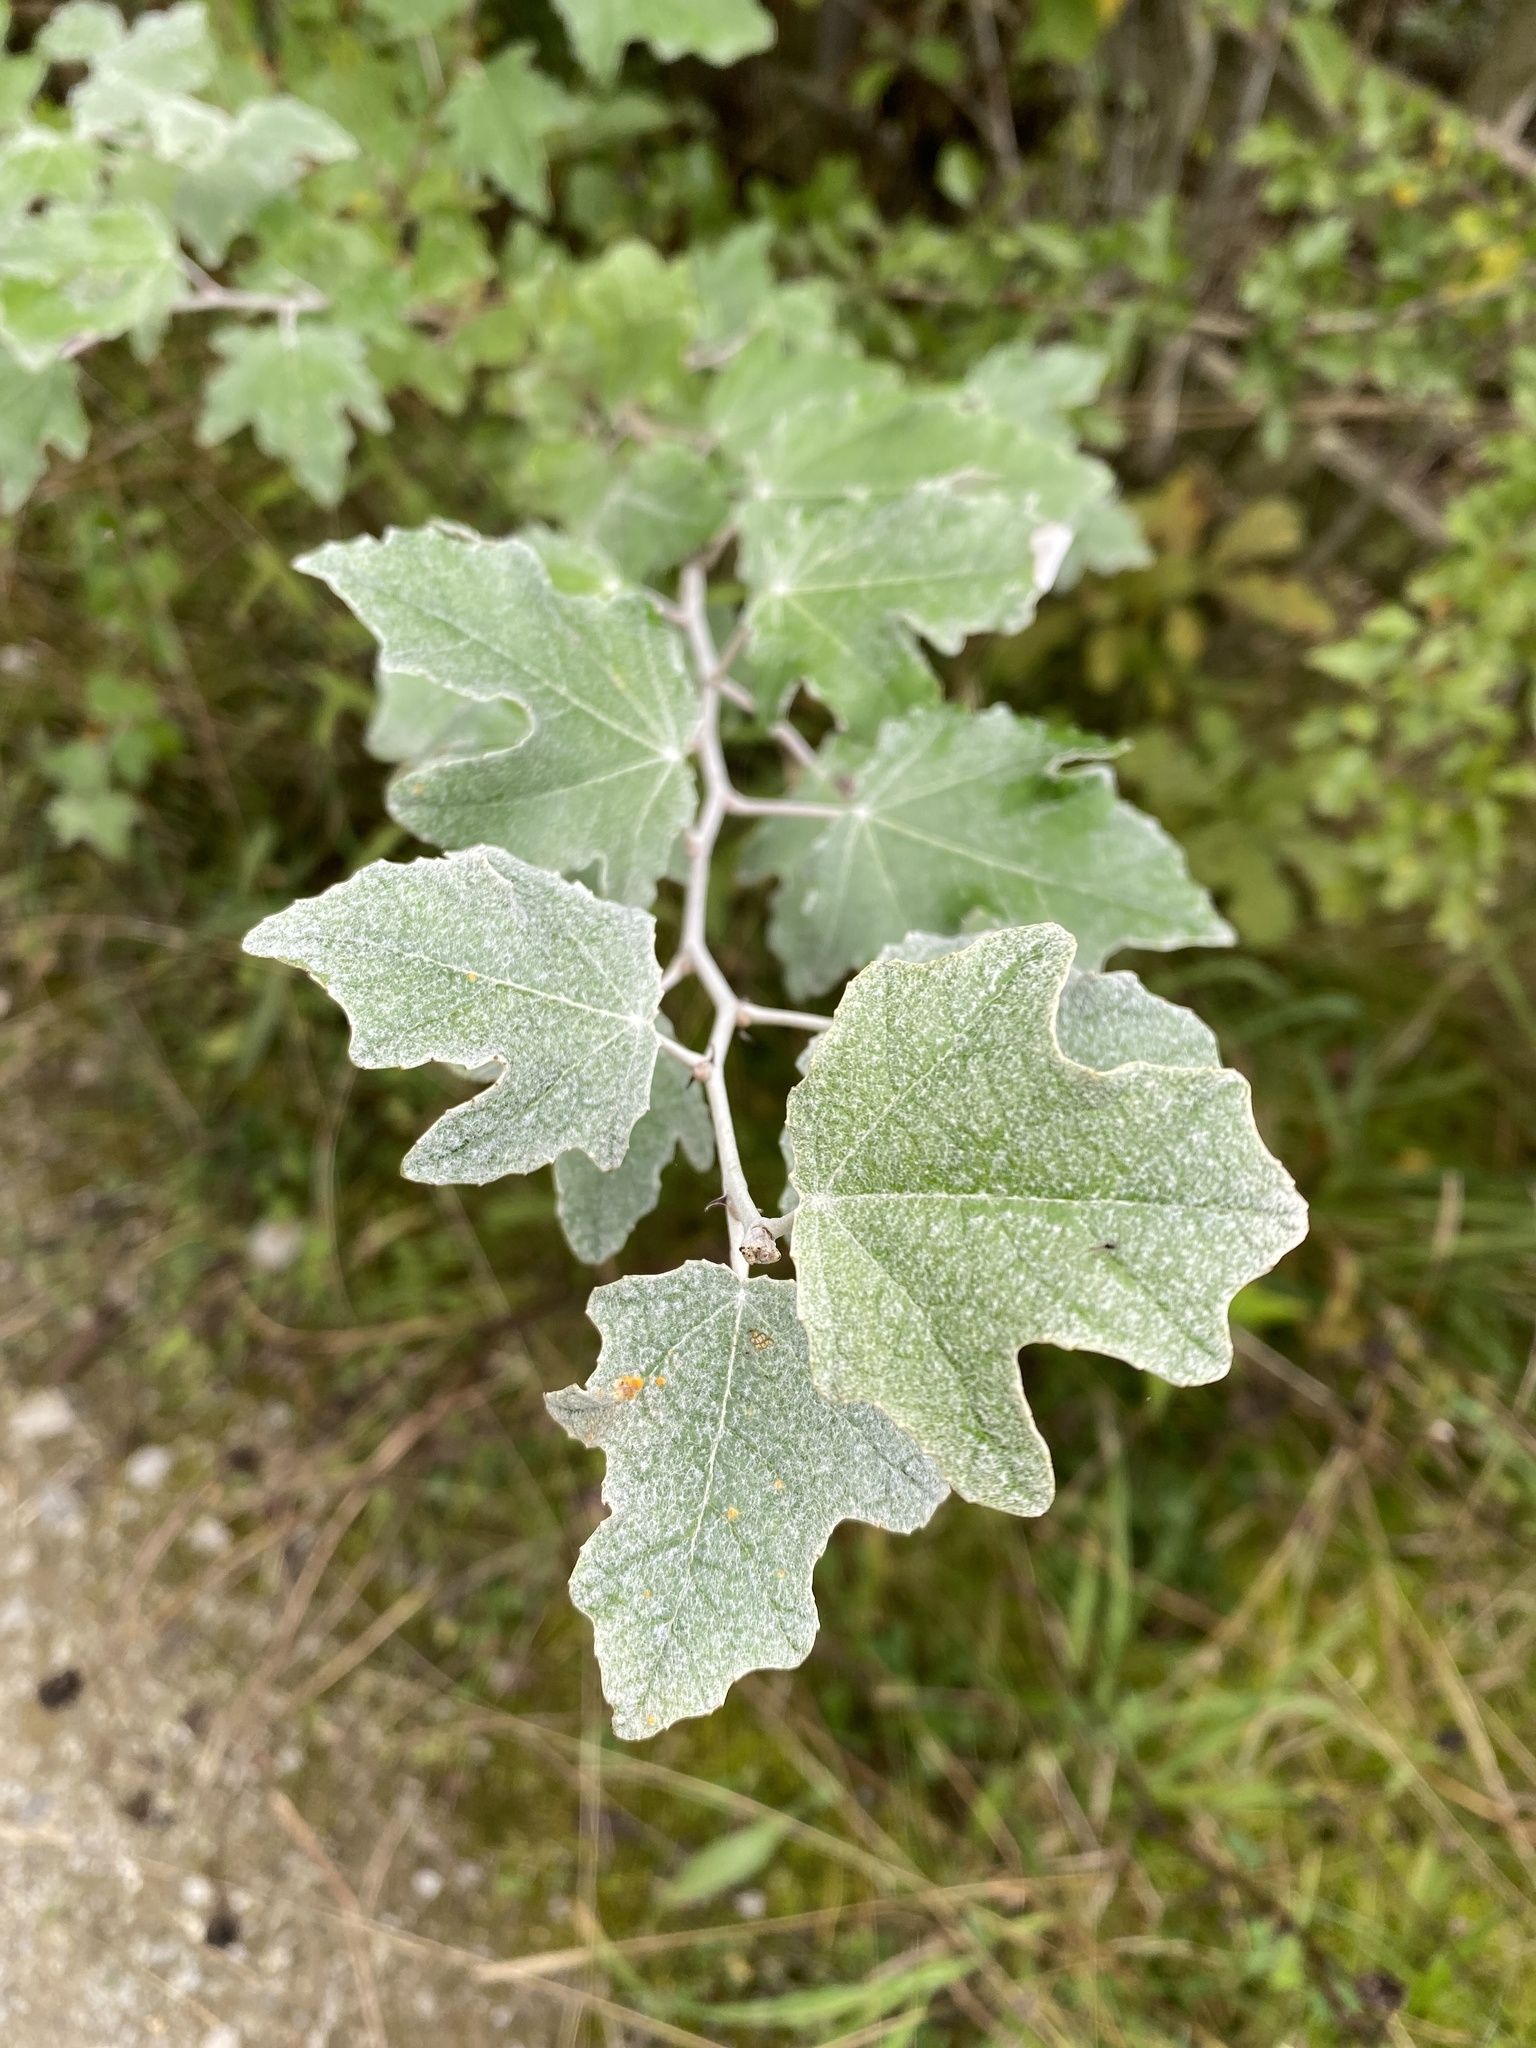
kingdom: Plantae
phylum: Tracheophyta
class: Magnoliopsida
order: Malpighiales
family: Salicaceae
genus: Populus
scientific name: Populus alba
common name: White poplar
